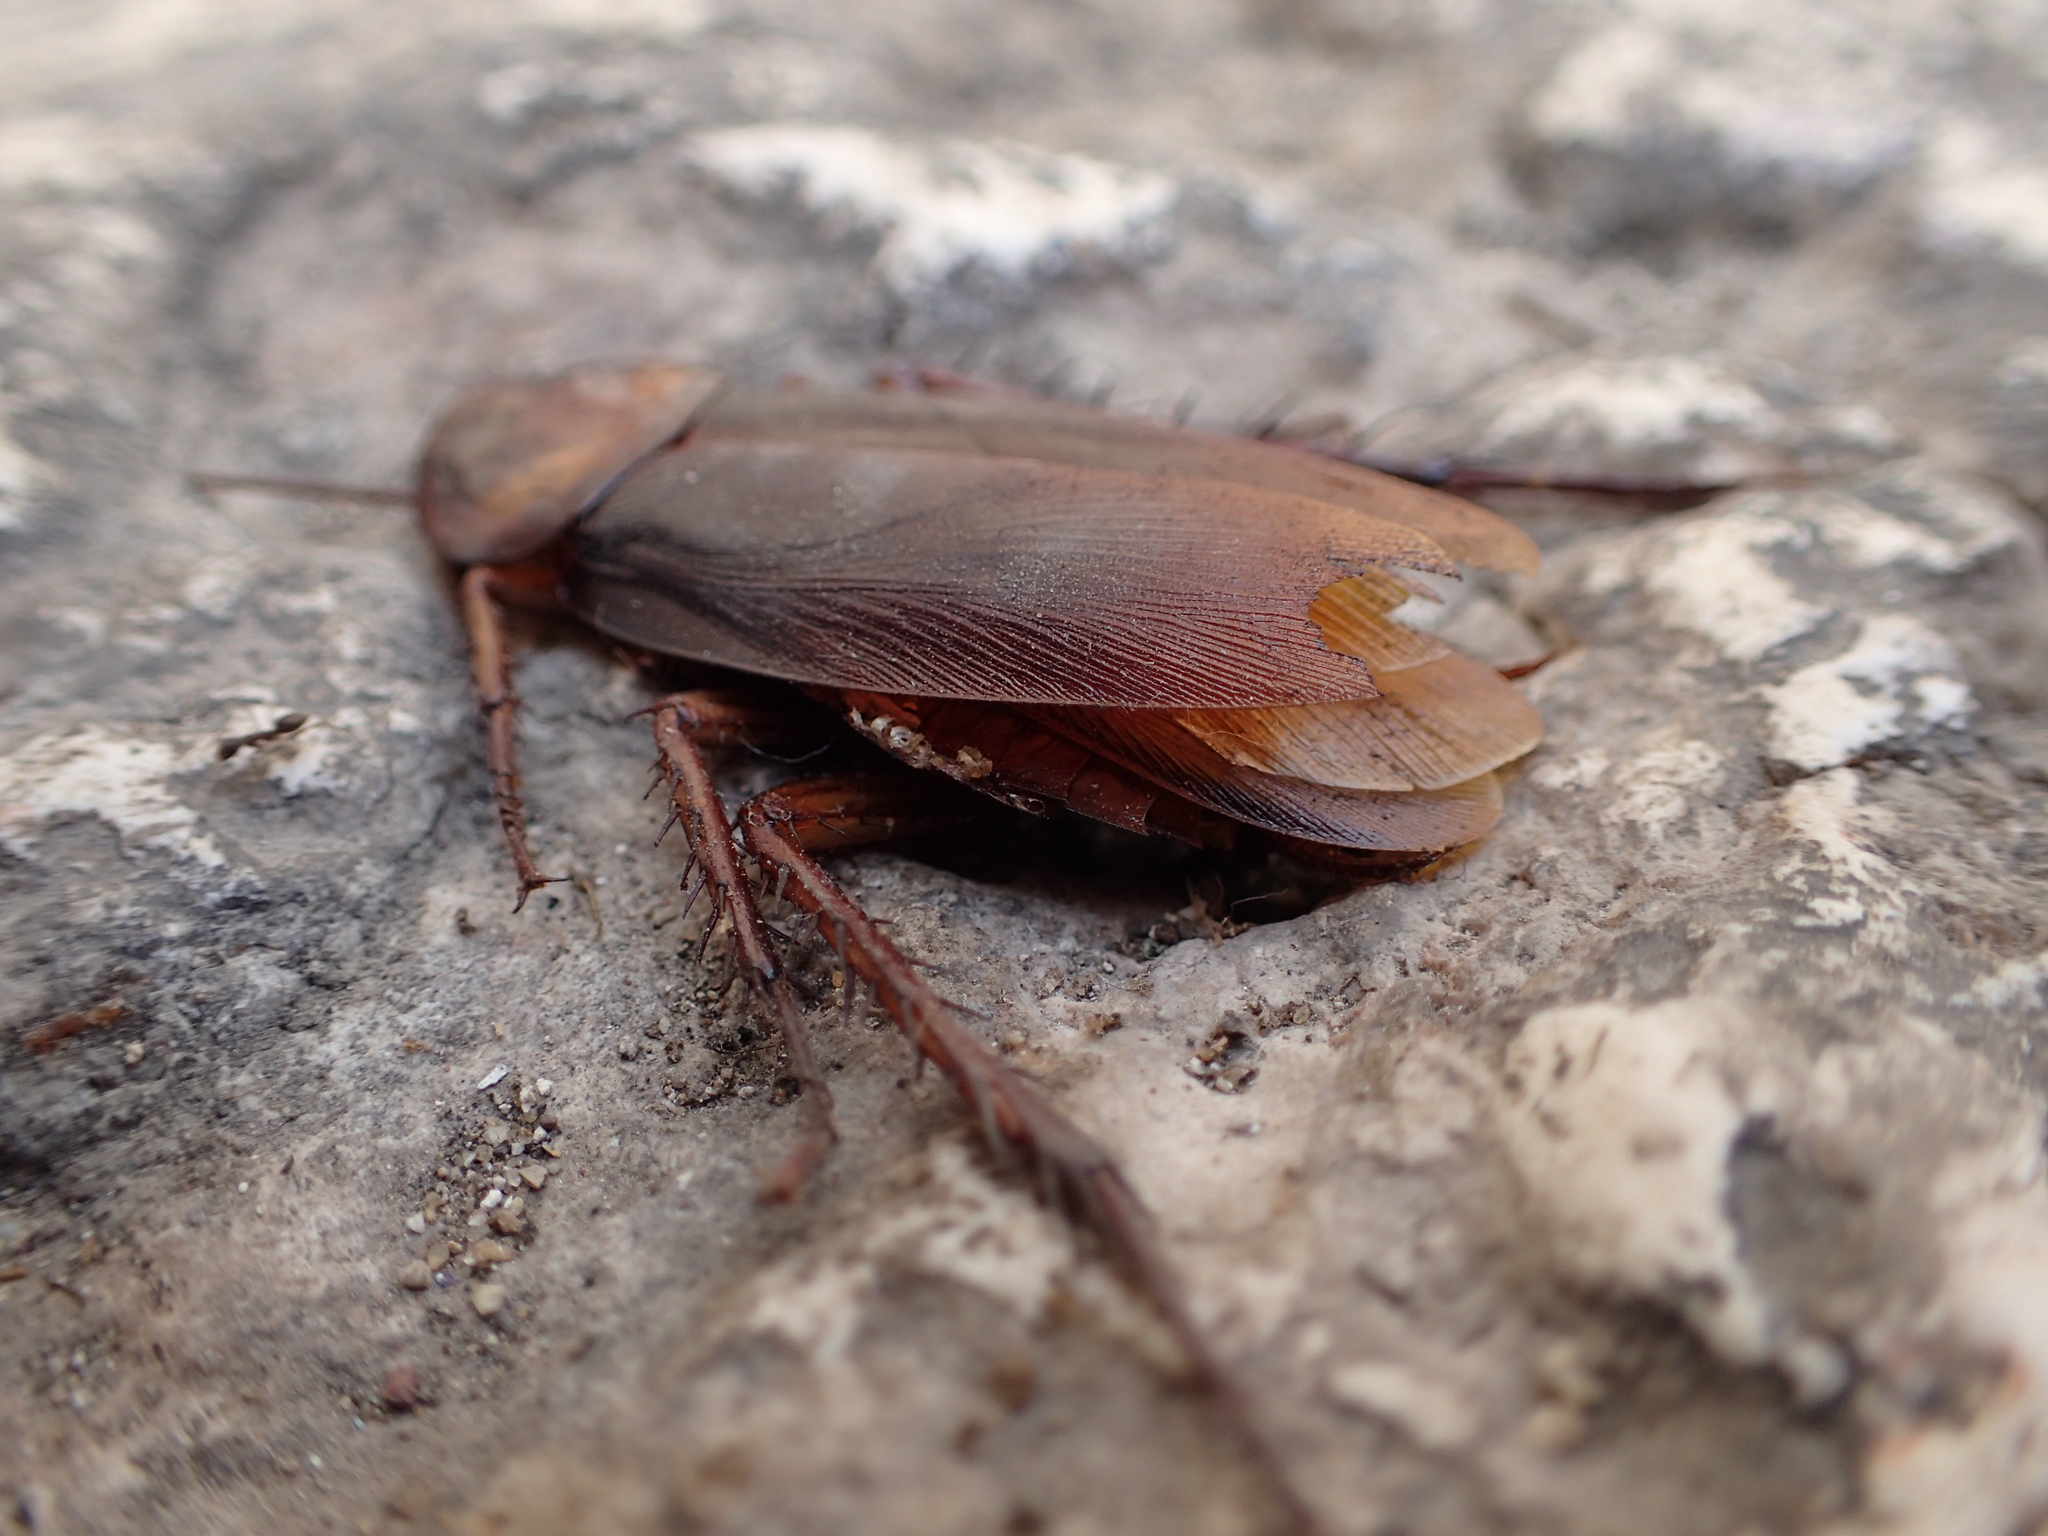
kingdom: Animalia
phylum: Arthropoda
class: Insecta
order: Blattodea
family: Blattidae
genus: Periplaneta
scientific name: Periplaneta americana
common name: American cockroach
